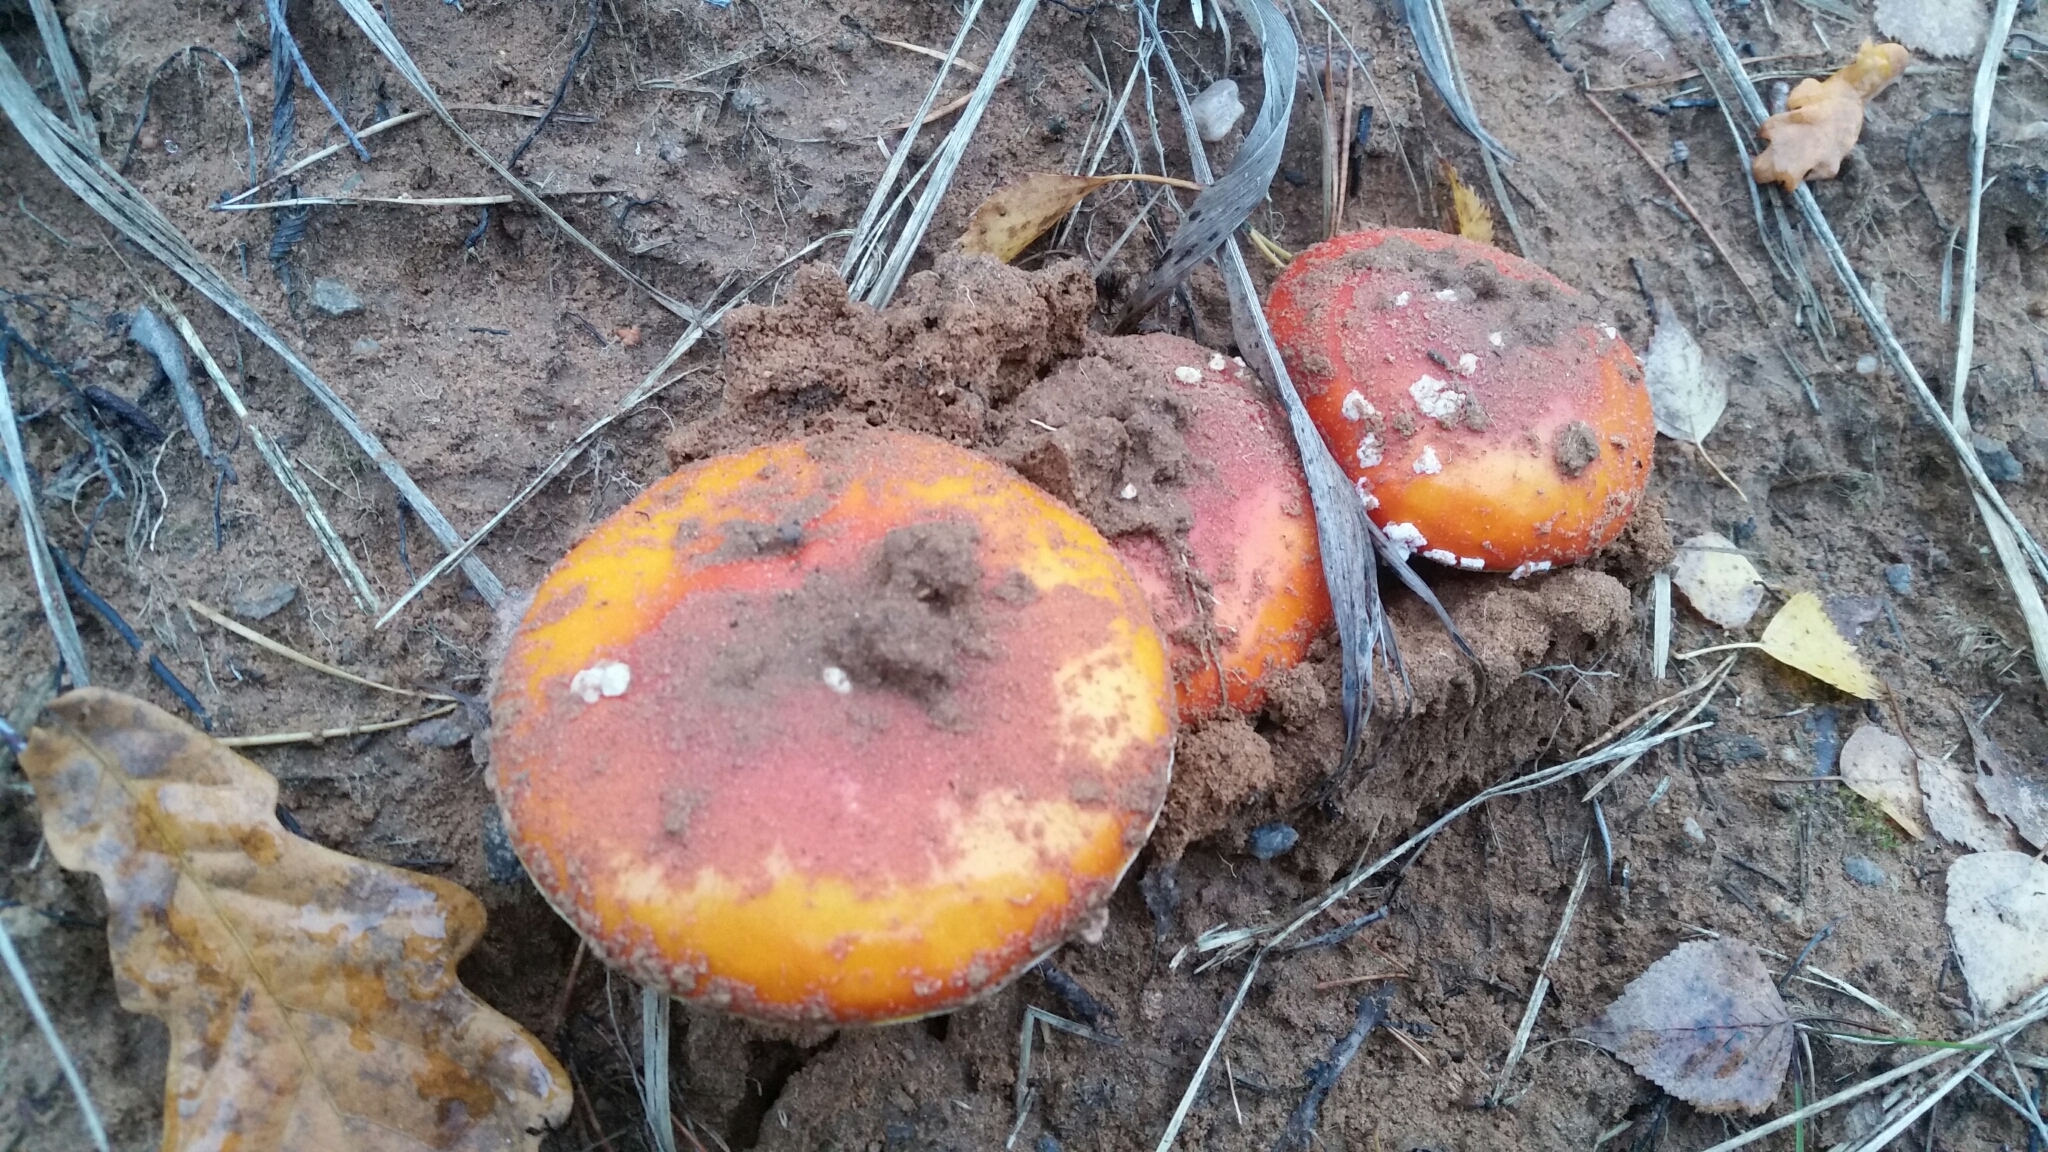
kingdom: Fungi
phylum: Basidiomycota
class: Agaricomycetes
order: Agaricales
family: Amanitaceae
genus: Amanita
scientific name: Amanita muscaria
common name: Fly agaric
